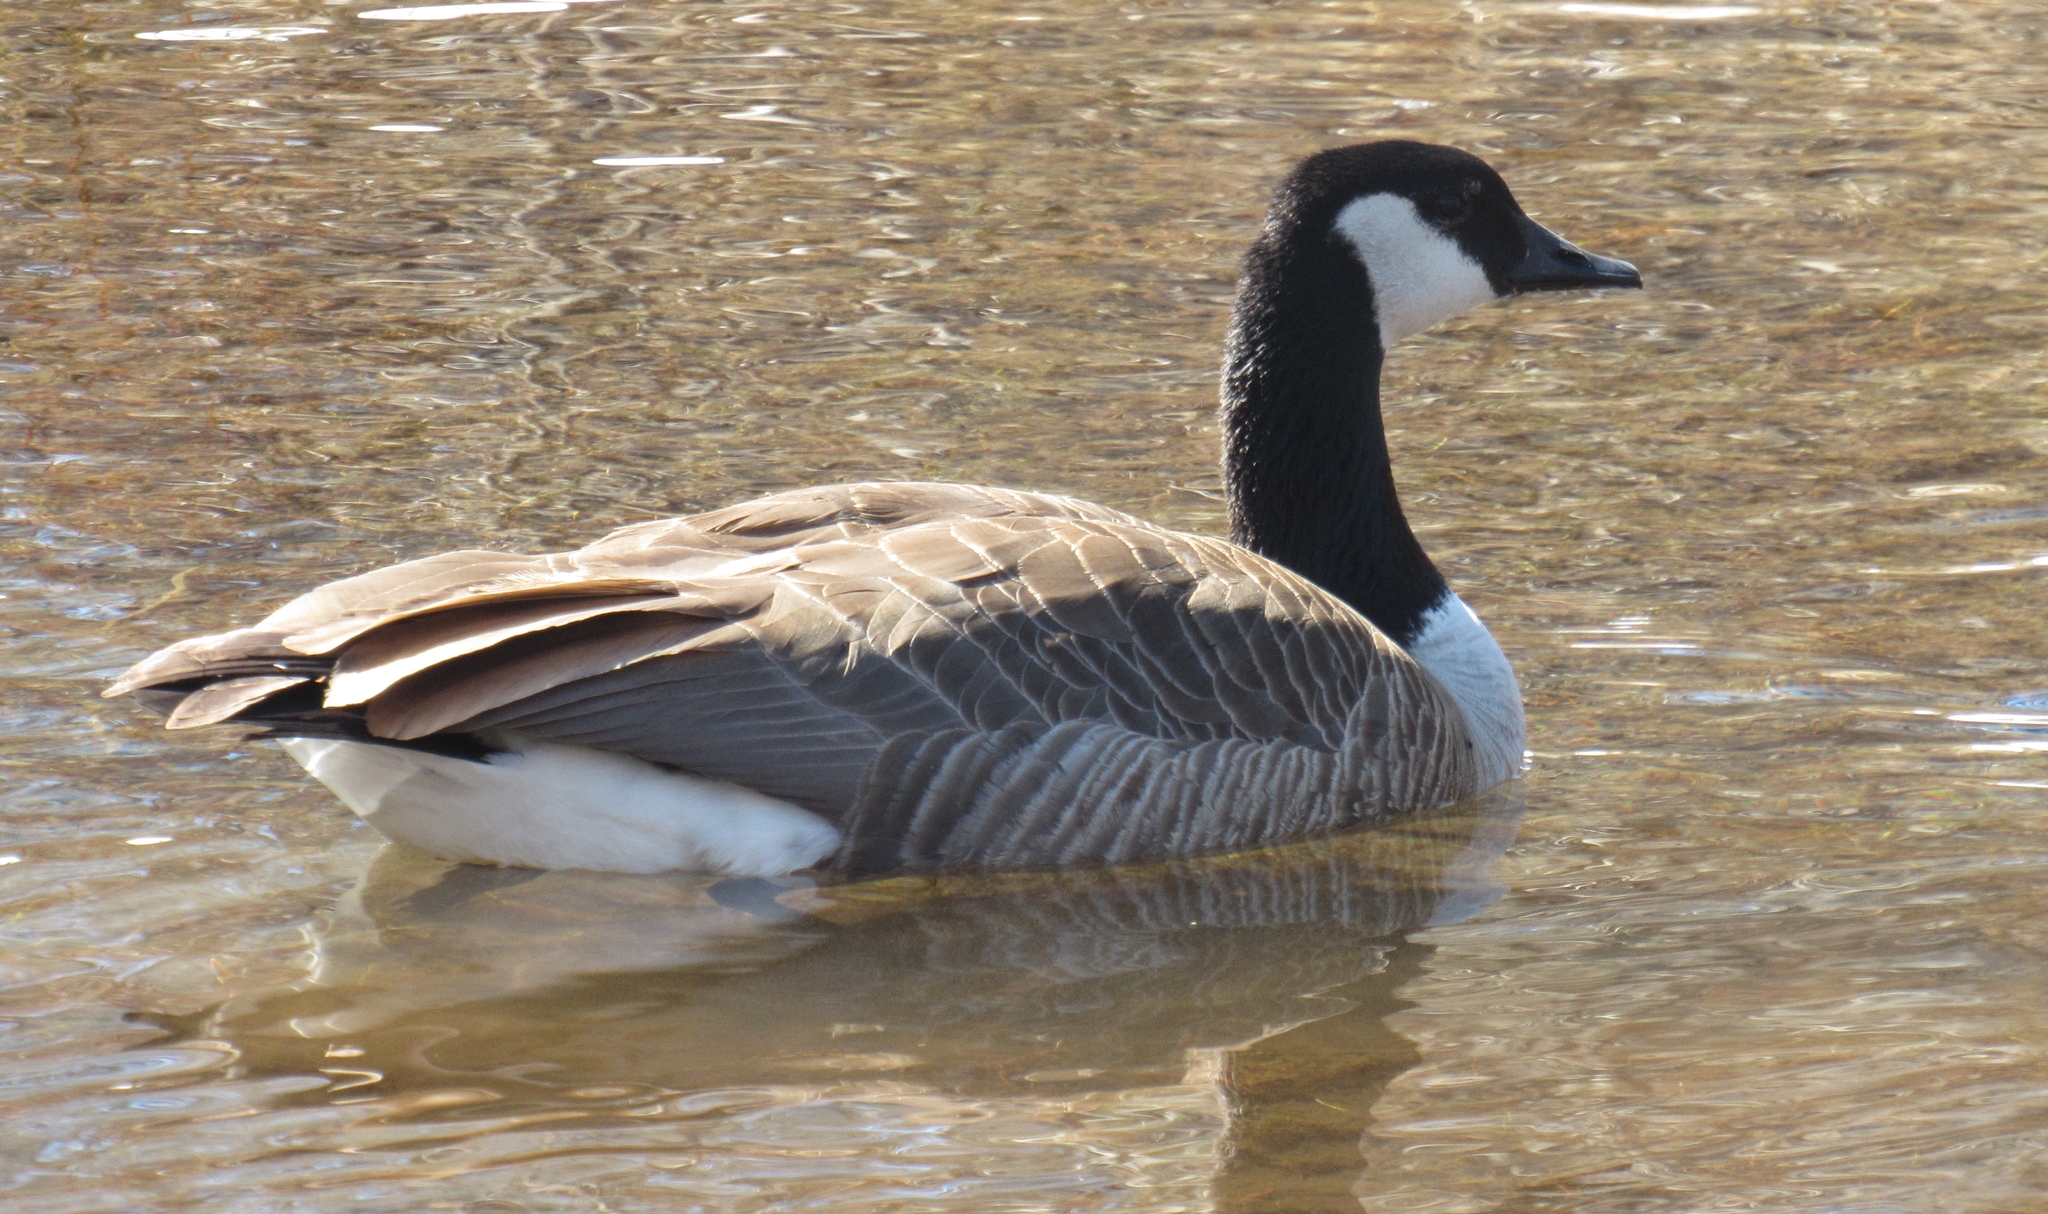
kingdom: Animalia
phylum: Chordata
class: Aves
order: Anseriformes
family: Anatidae
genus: Branta
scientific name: Branta canadensis
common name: Canada goose
